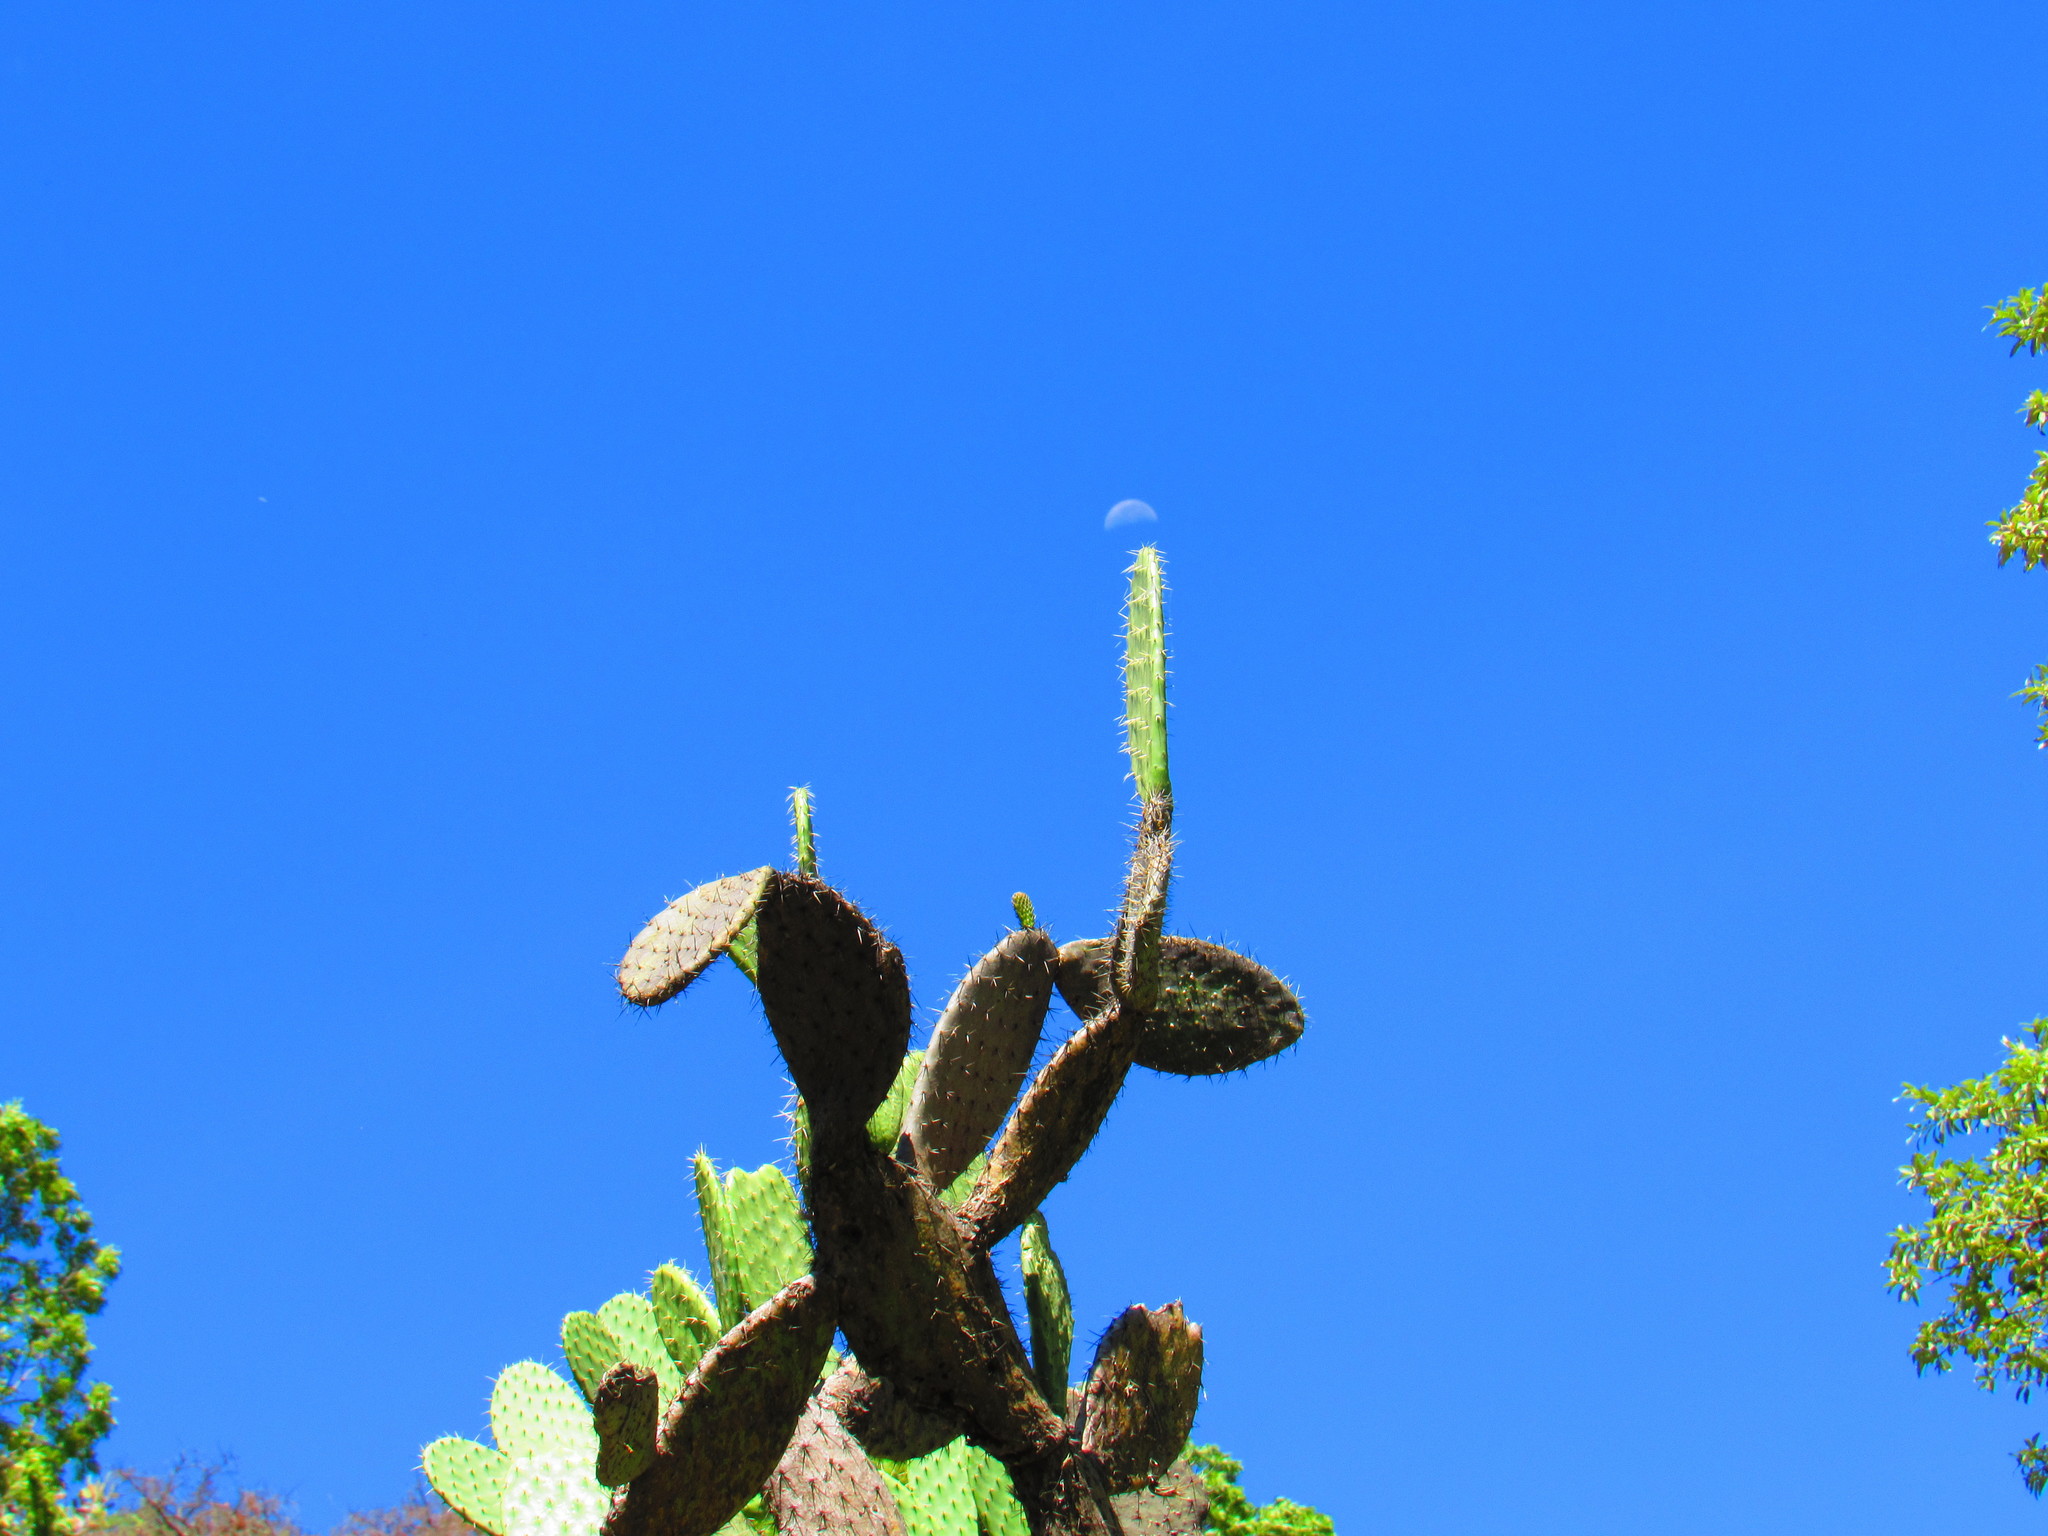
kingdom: Plantae
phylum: Tracheophyta
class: Magnoliopsida
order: Caryophyllales
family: Cactaceae
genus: Opuntia
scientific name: Opuntia jaliscana
